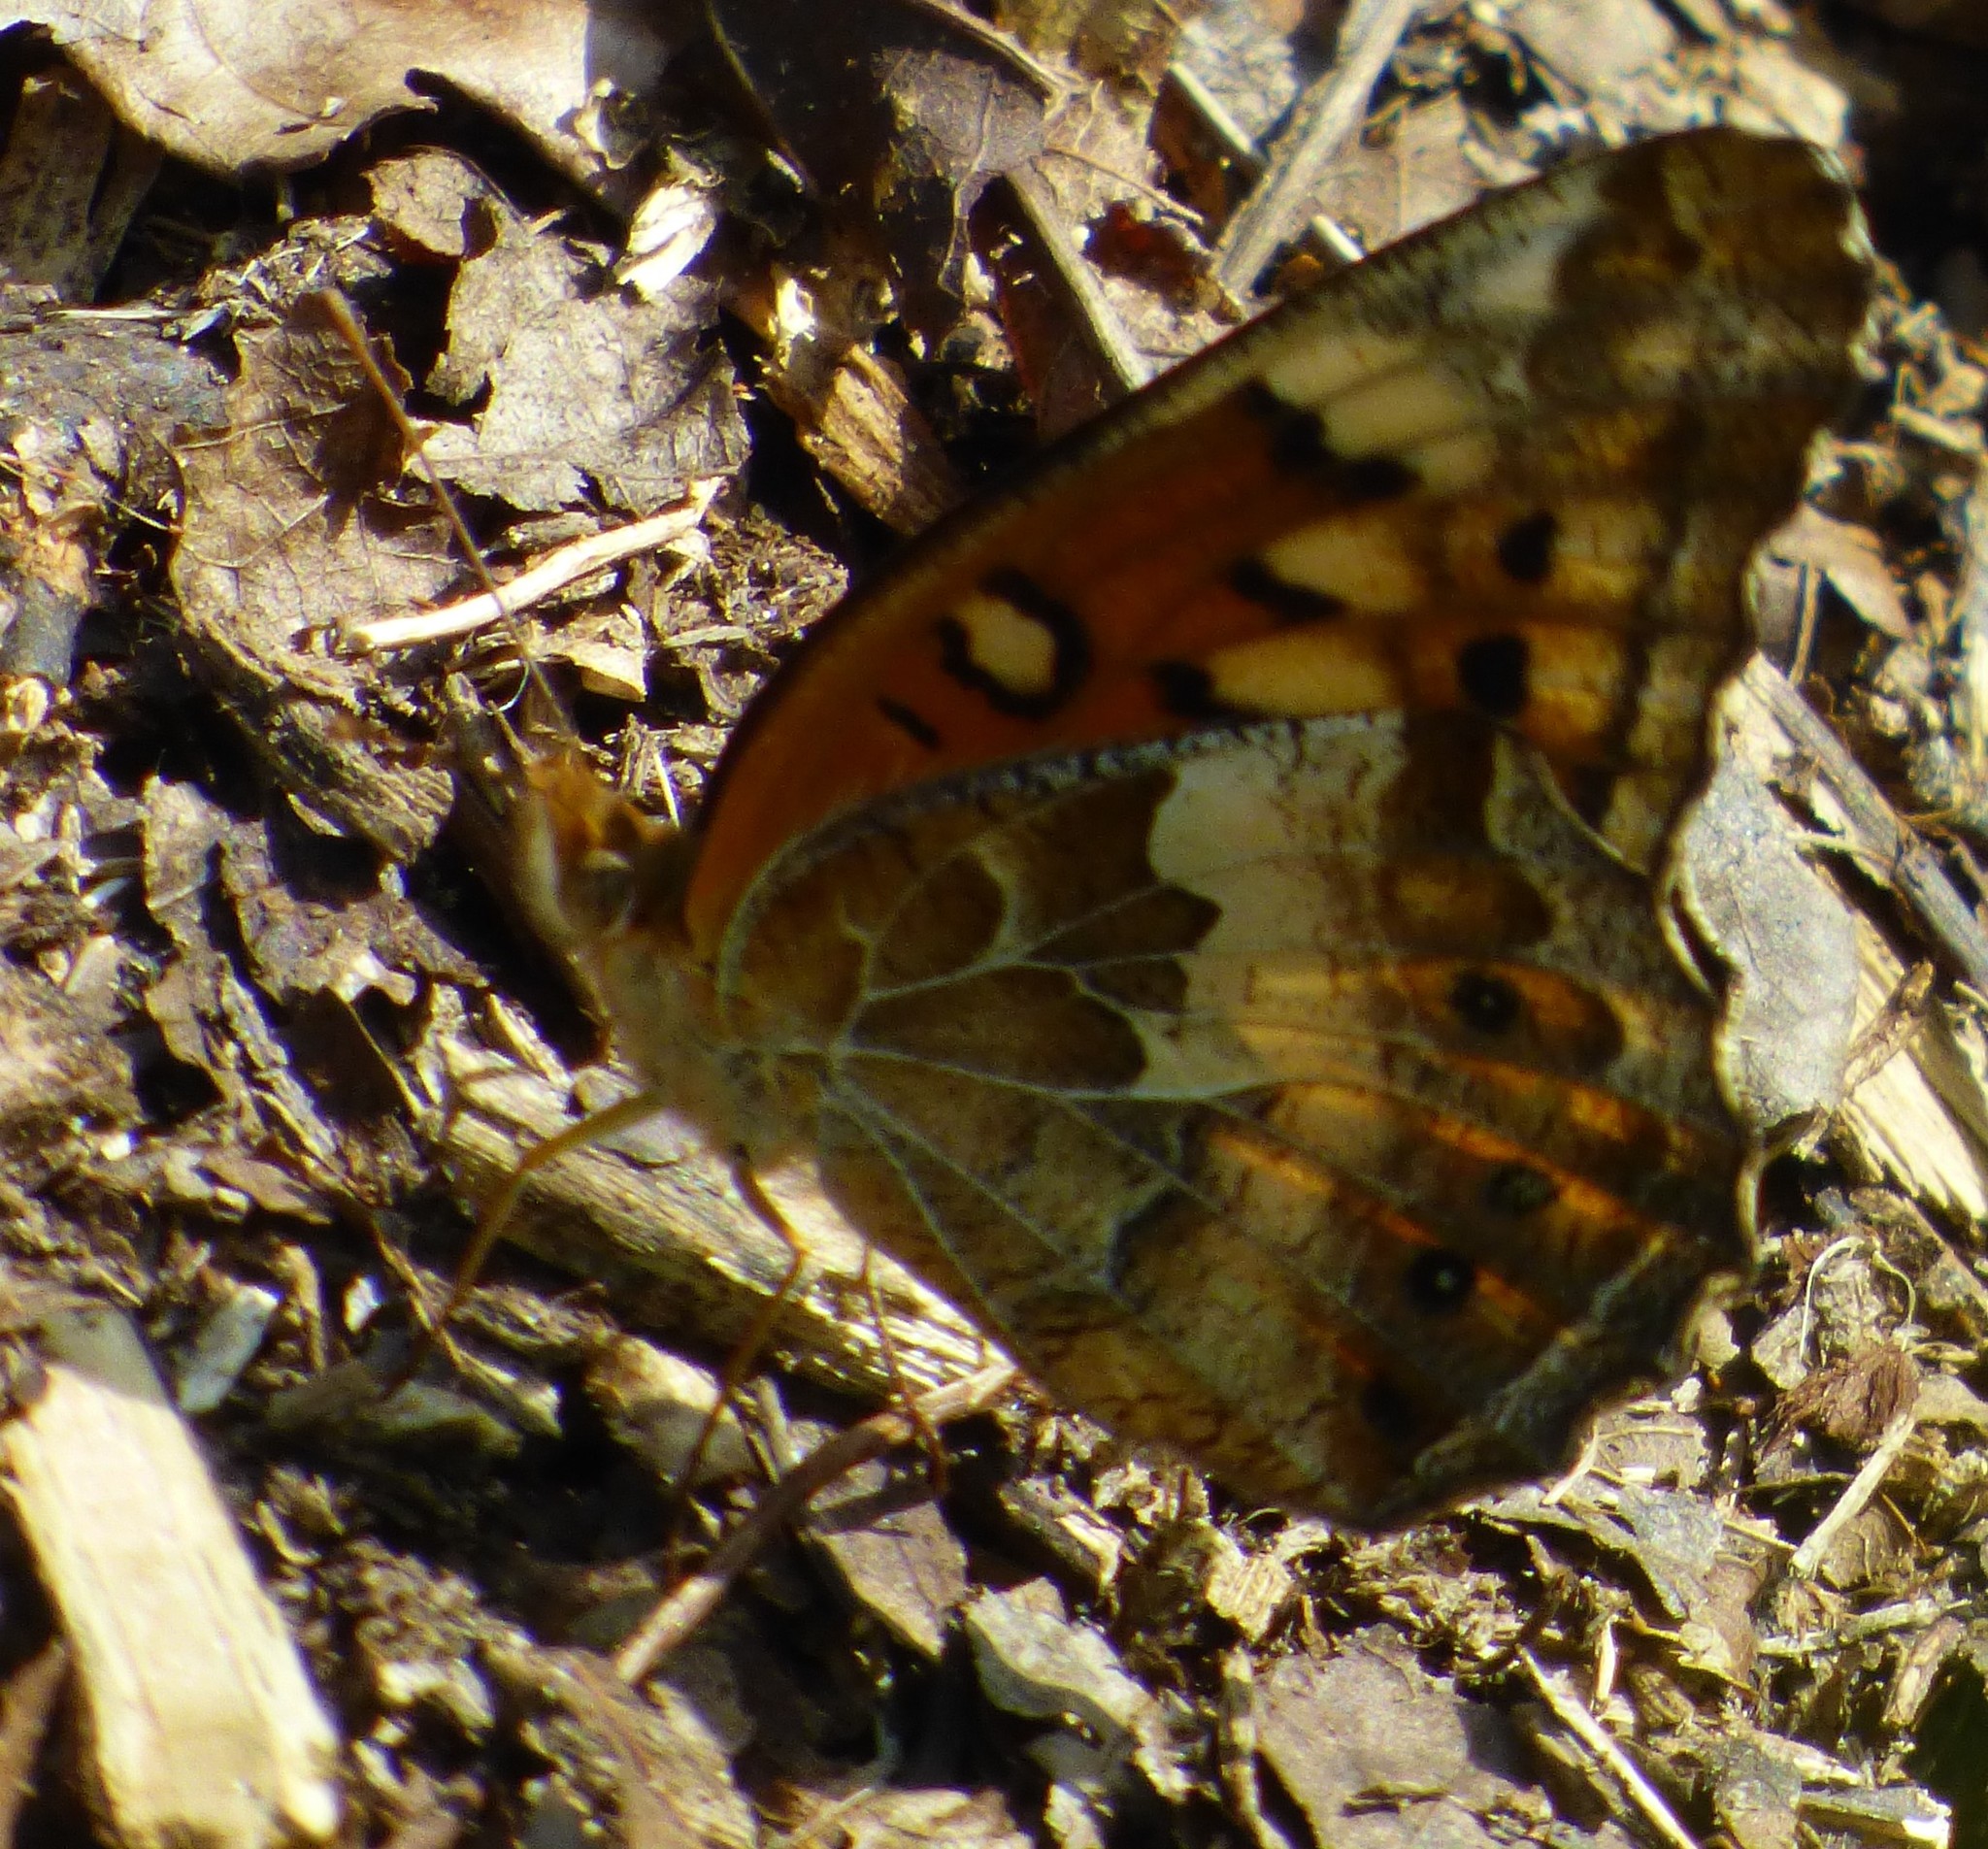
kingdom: Animalia
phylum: Arthropoda
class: Insecta
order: Lepidoptera
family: Nymphalidae
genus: Euptoieta
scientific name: Euptoieta claudia
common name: Variegated fritillary
